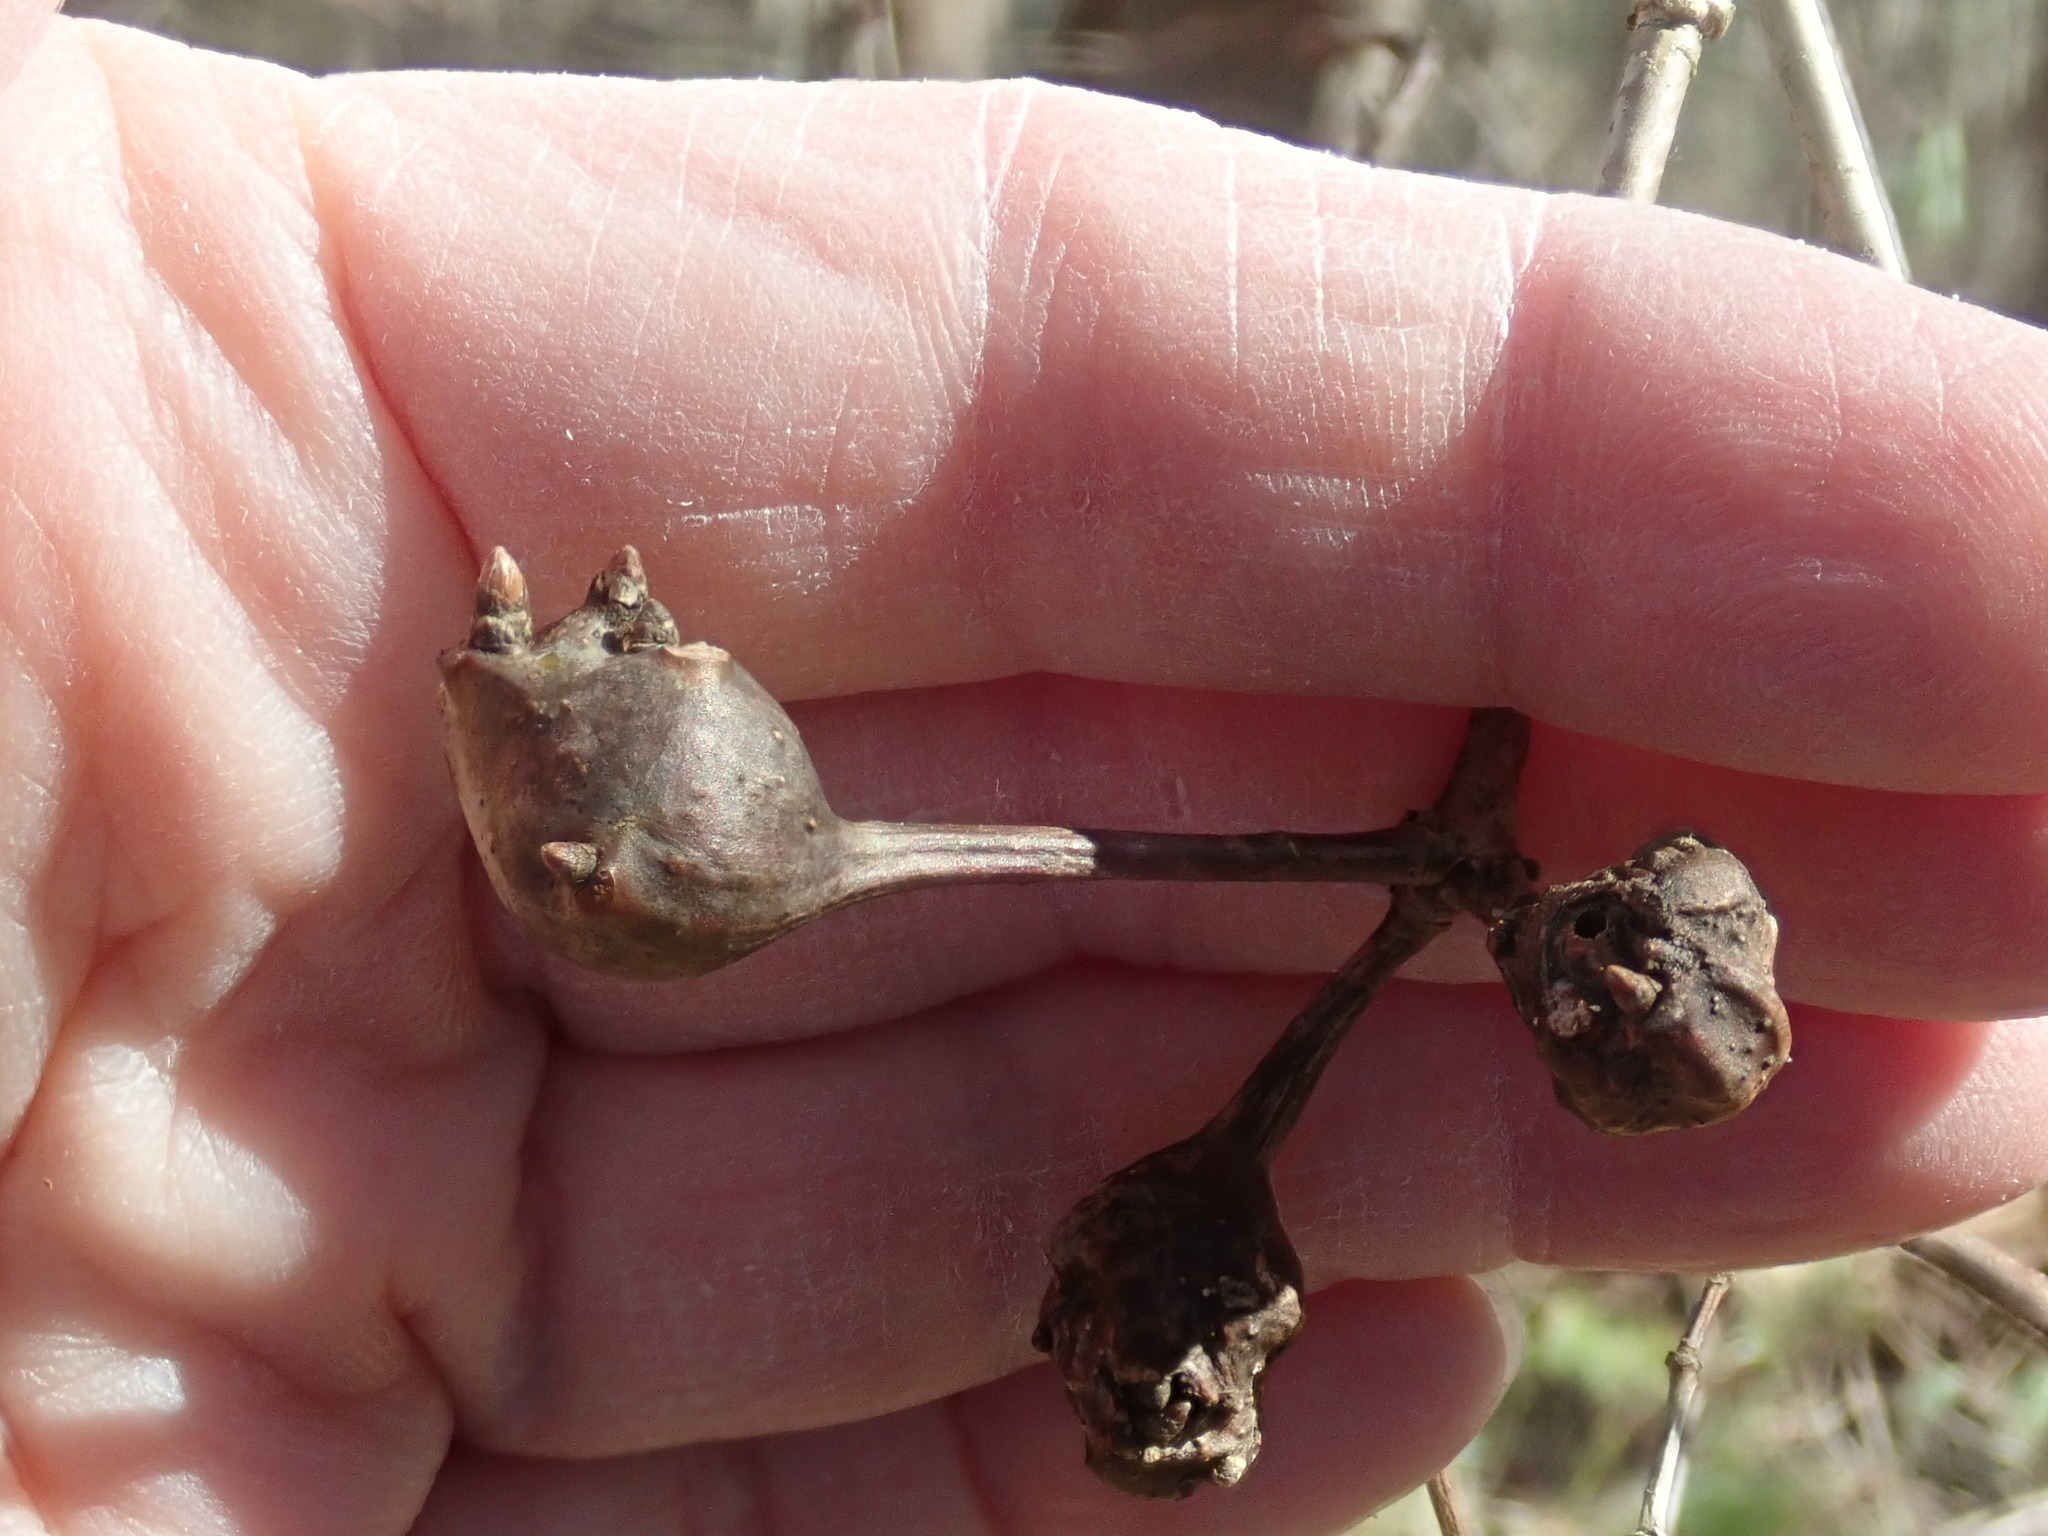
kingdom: Animalia
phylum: Arthropoda
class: Insecta
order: Hymenoptera
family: Cynipidae
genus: Callirhytis
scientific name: Callirhytis clavula
